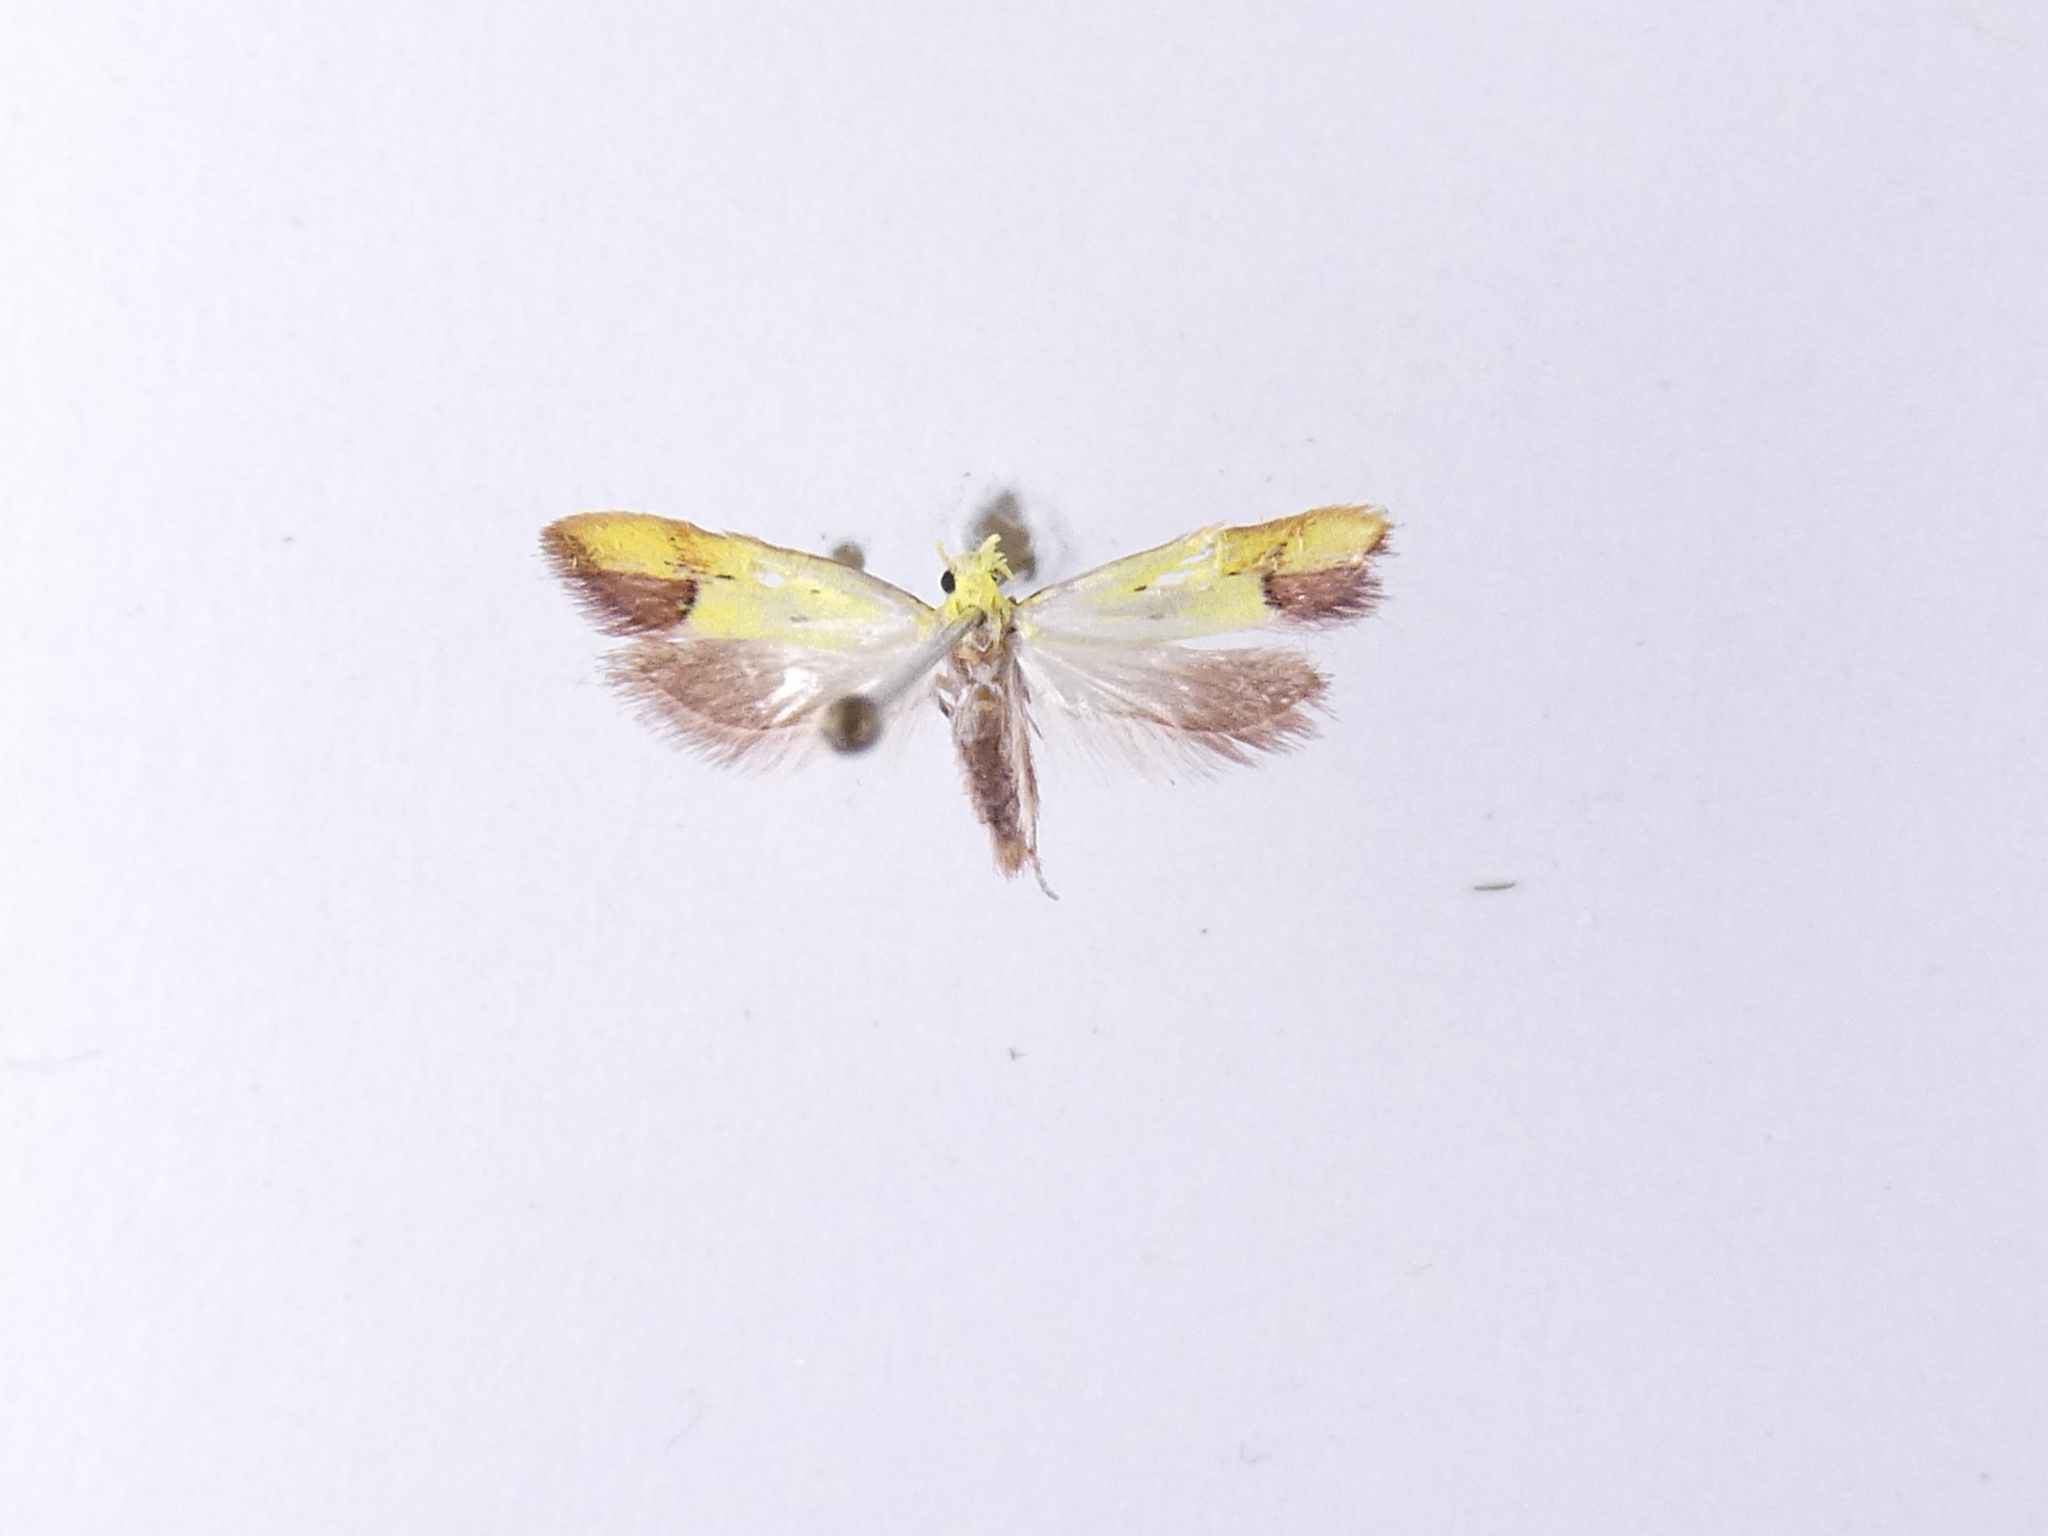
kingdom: Animalia
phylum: Arthropoda
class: Insecta
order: Lepidoptera
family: Oecophoridae
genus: Gymnobathra
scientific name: Gymnobathra flavidella
